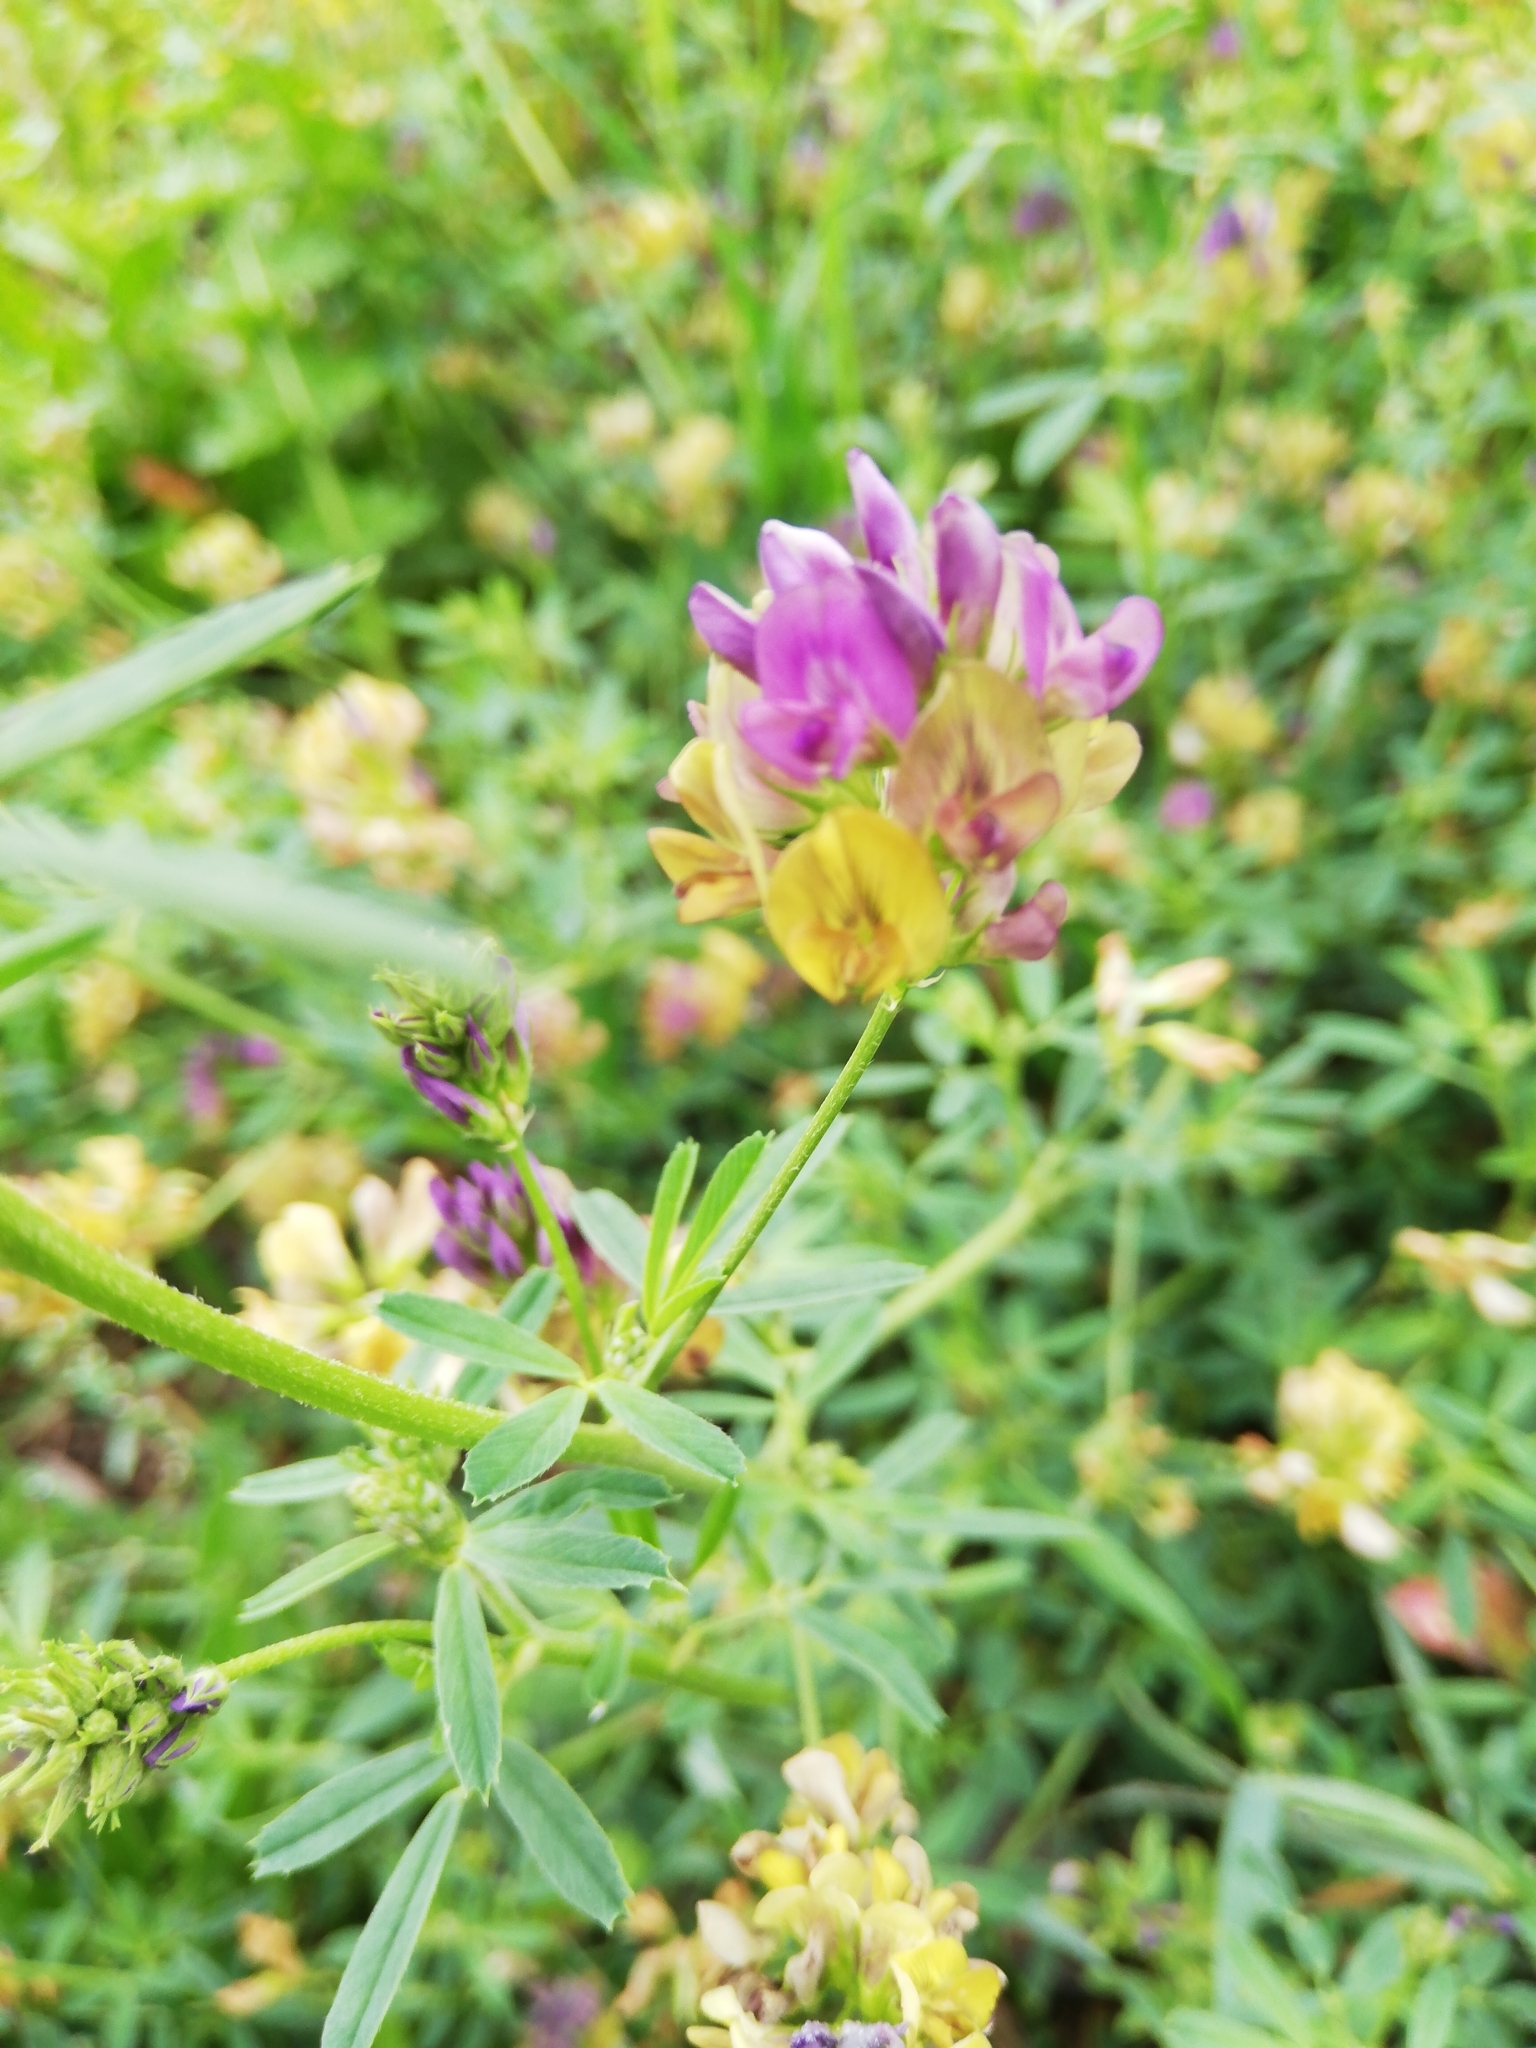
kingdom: Plantae
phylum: Tracheophyta
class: Magnoliopsida
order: Fabales
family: Fabaceae
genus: Medicago
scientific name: Medicago varia
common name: Sand lucerne
